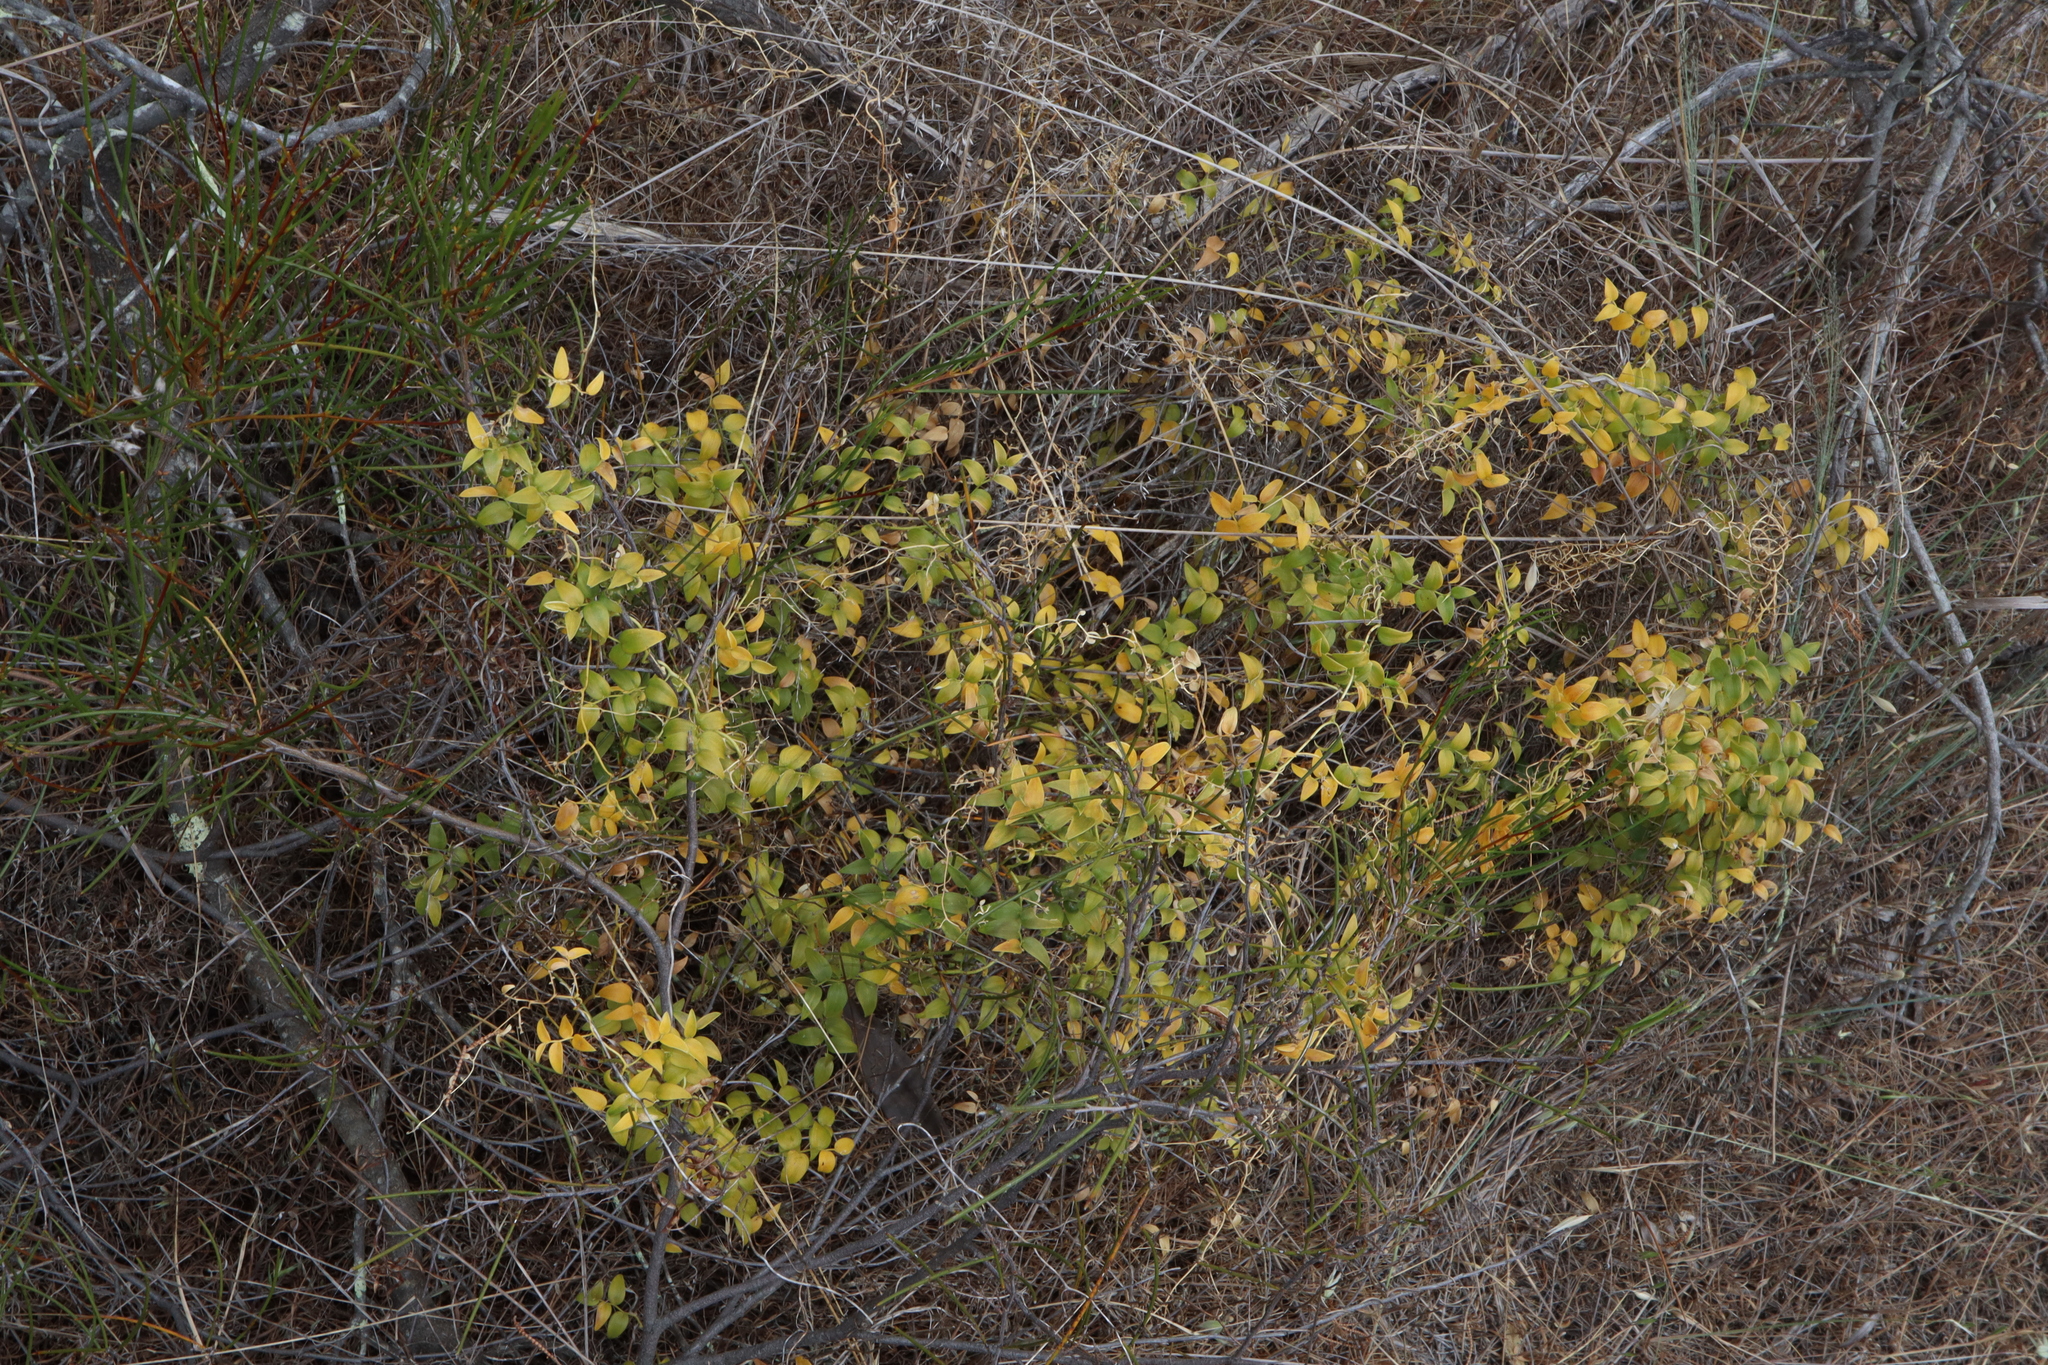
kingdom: Plantae
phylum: Tracheophyta
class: Liliopsida
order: Asparagales
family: Asparagaceae
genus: Asparagus
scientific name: Asparagus asparagoides
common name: African asparagus fern
